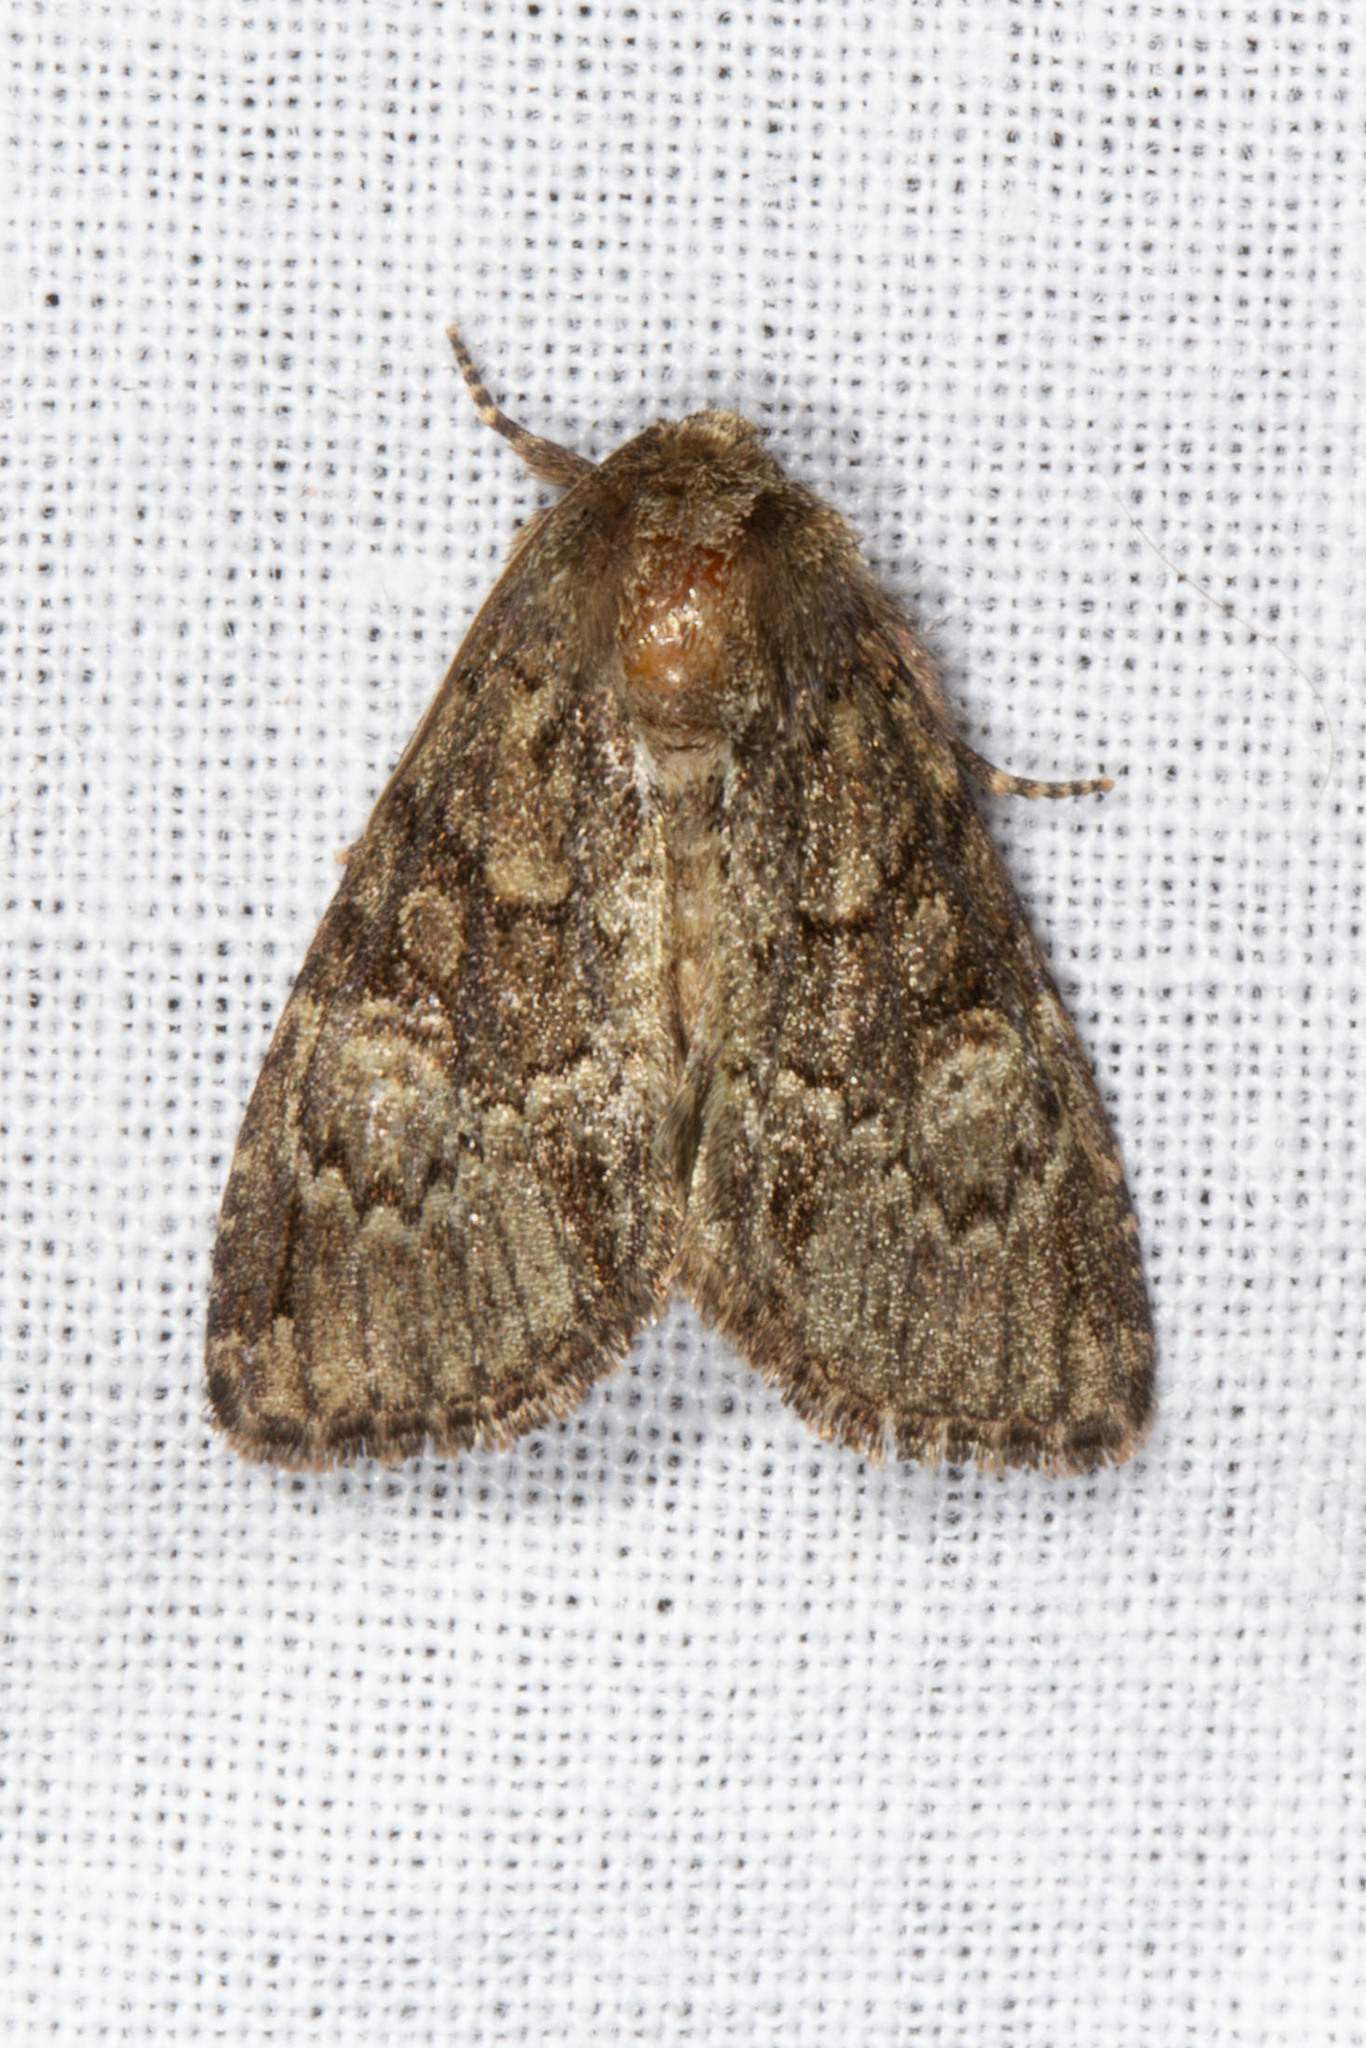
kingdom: Animalia
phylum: Arthropoda
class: Insecta
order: Lepidoptera
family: Noctuidae
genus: Phosphila
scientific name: Phosphila turbulenta
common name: Turbulent phosphila moth
